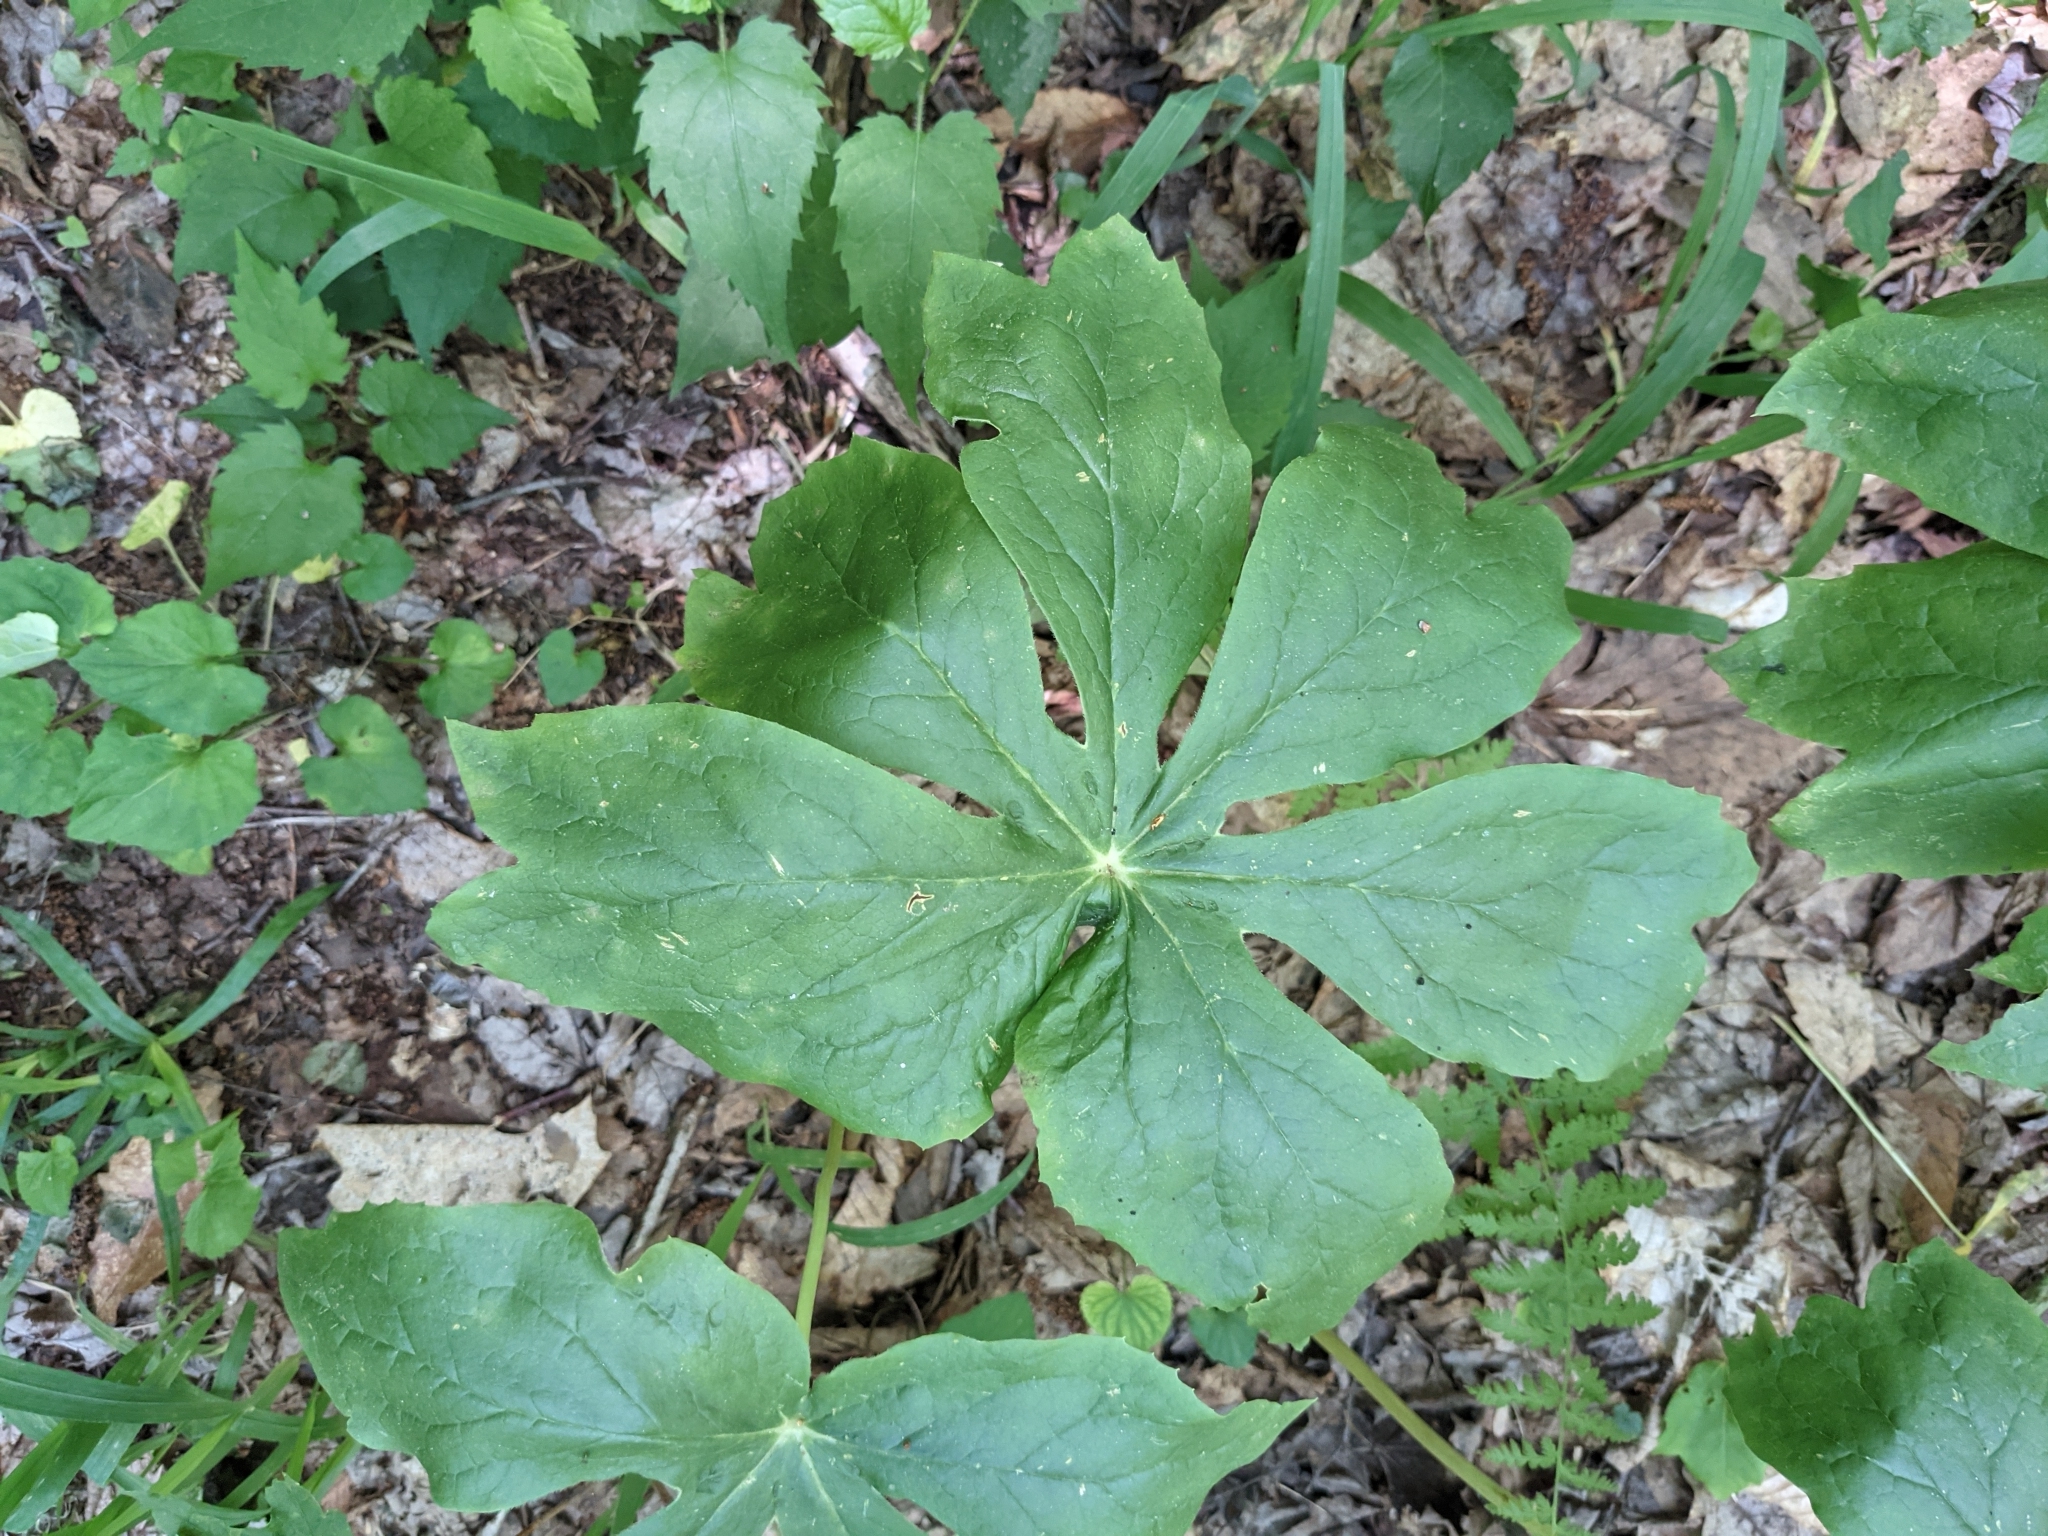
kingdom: Plantae
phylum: Tracheophyta
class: Magnoliopsida
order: Ranunculales
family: Berberidaceae
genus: Podophyllum
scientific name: Podophyllum peltatum
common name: Wild mandrake
